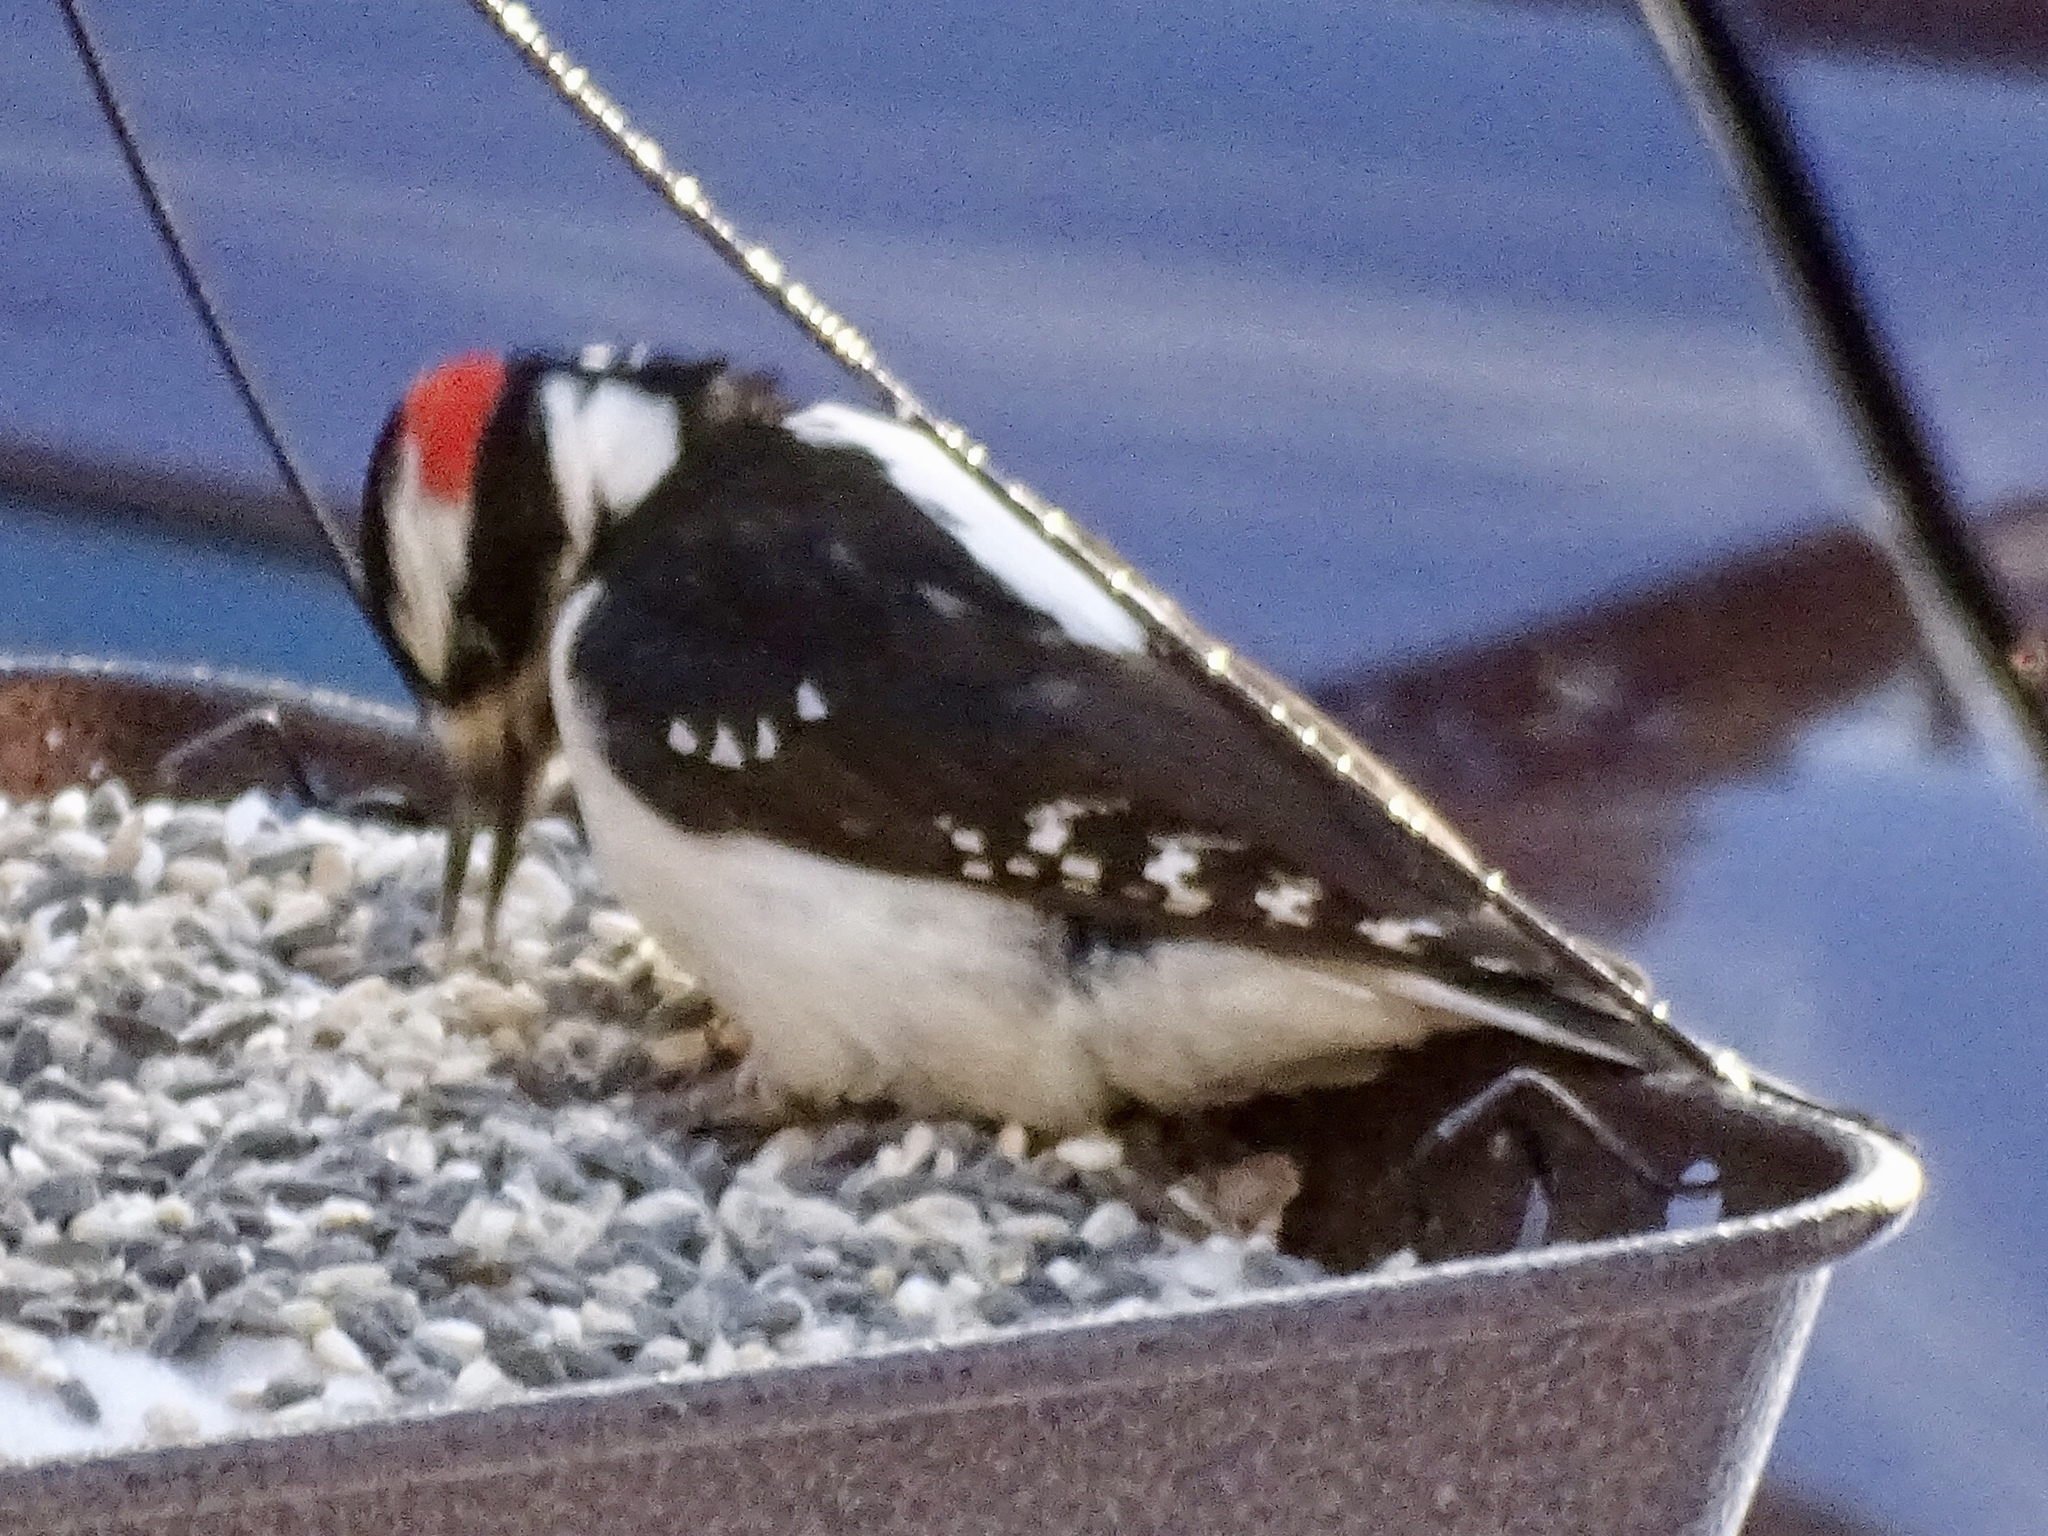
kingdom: Animalia
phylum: Chordata
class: Aves
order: Piciformes
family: Picidae
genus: Leuconotopicus
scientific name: Leuconotopicus villosus
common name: Hairy woodpecker
